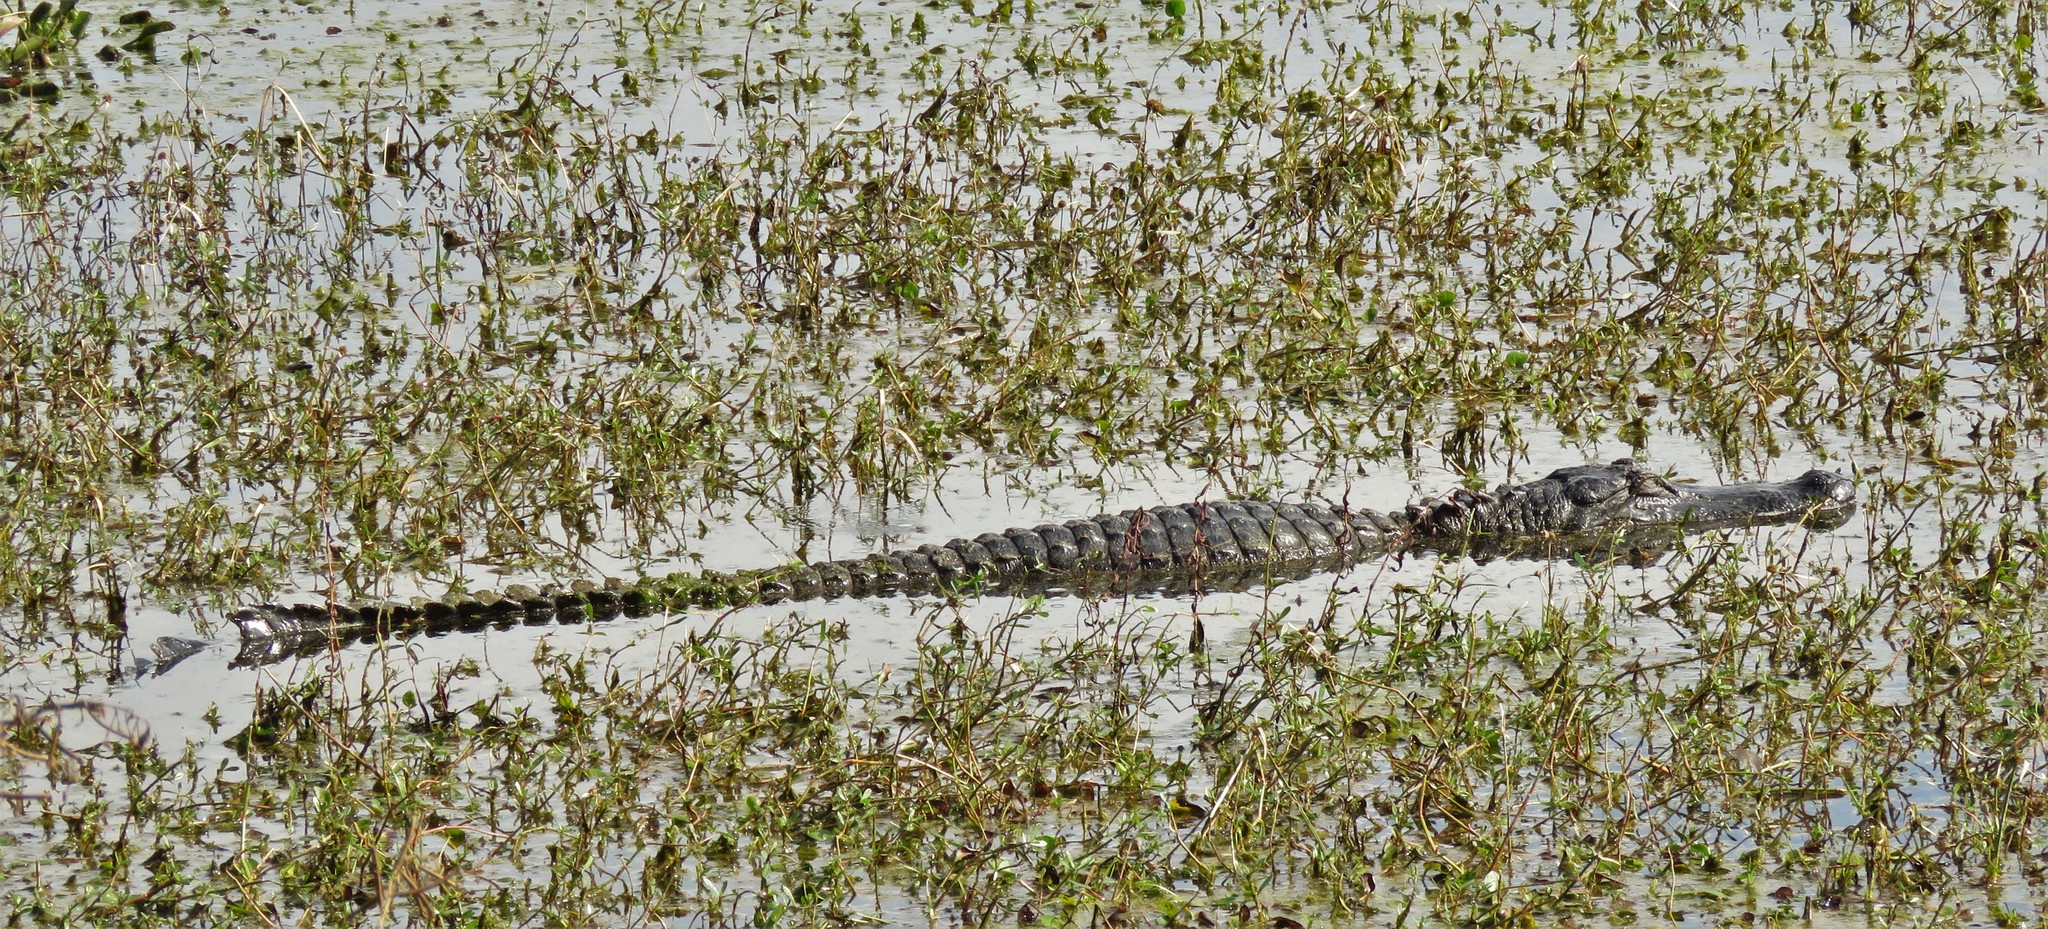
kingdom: Animalia
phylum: Chordata
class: Crocodylia
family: Alligatoridae
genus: Alligator
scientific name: Alligator mississippiensis
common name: American alligator
